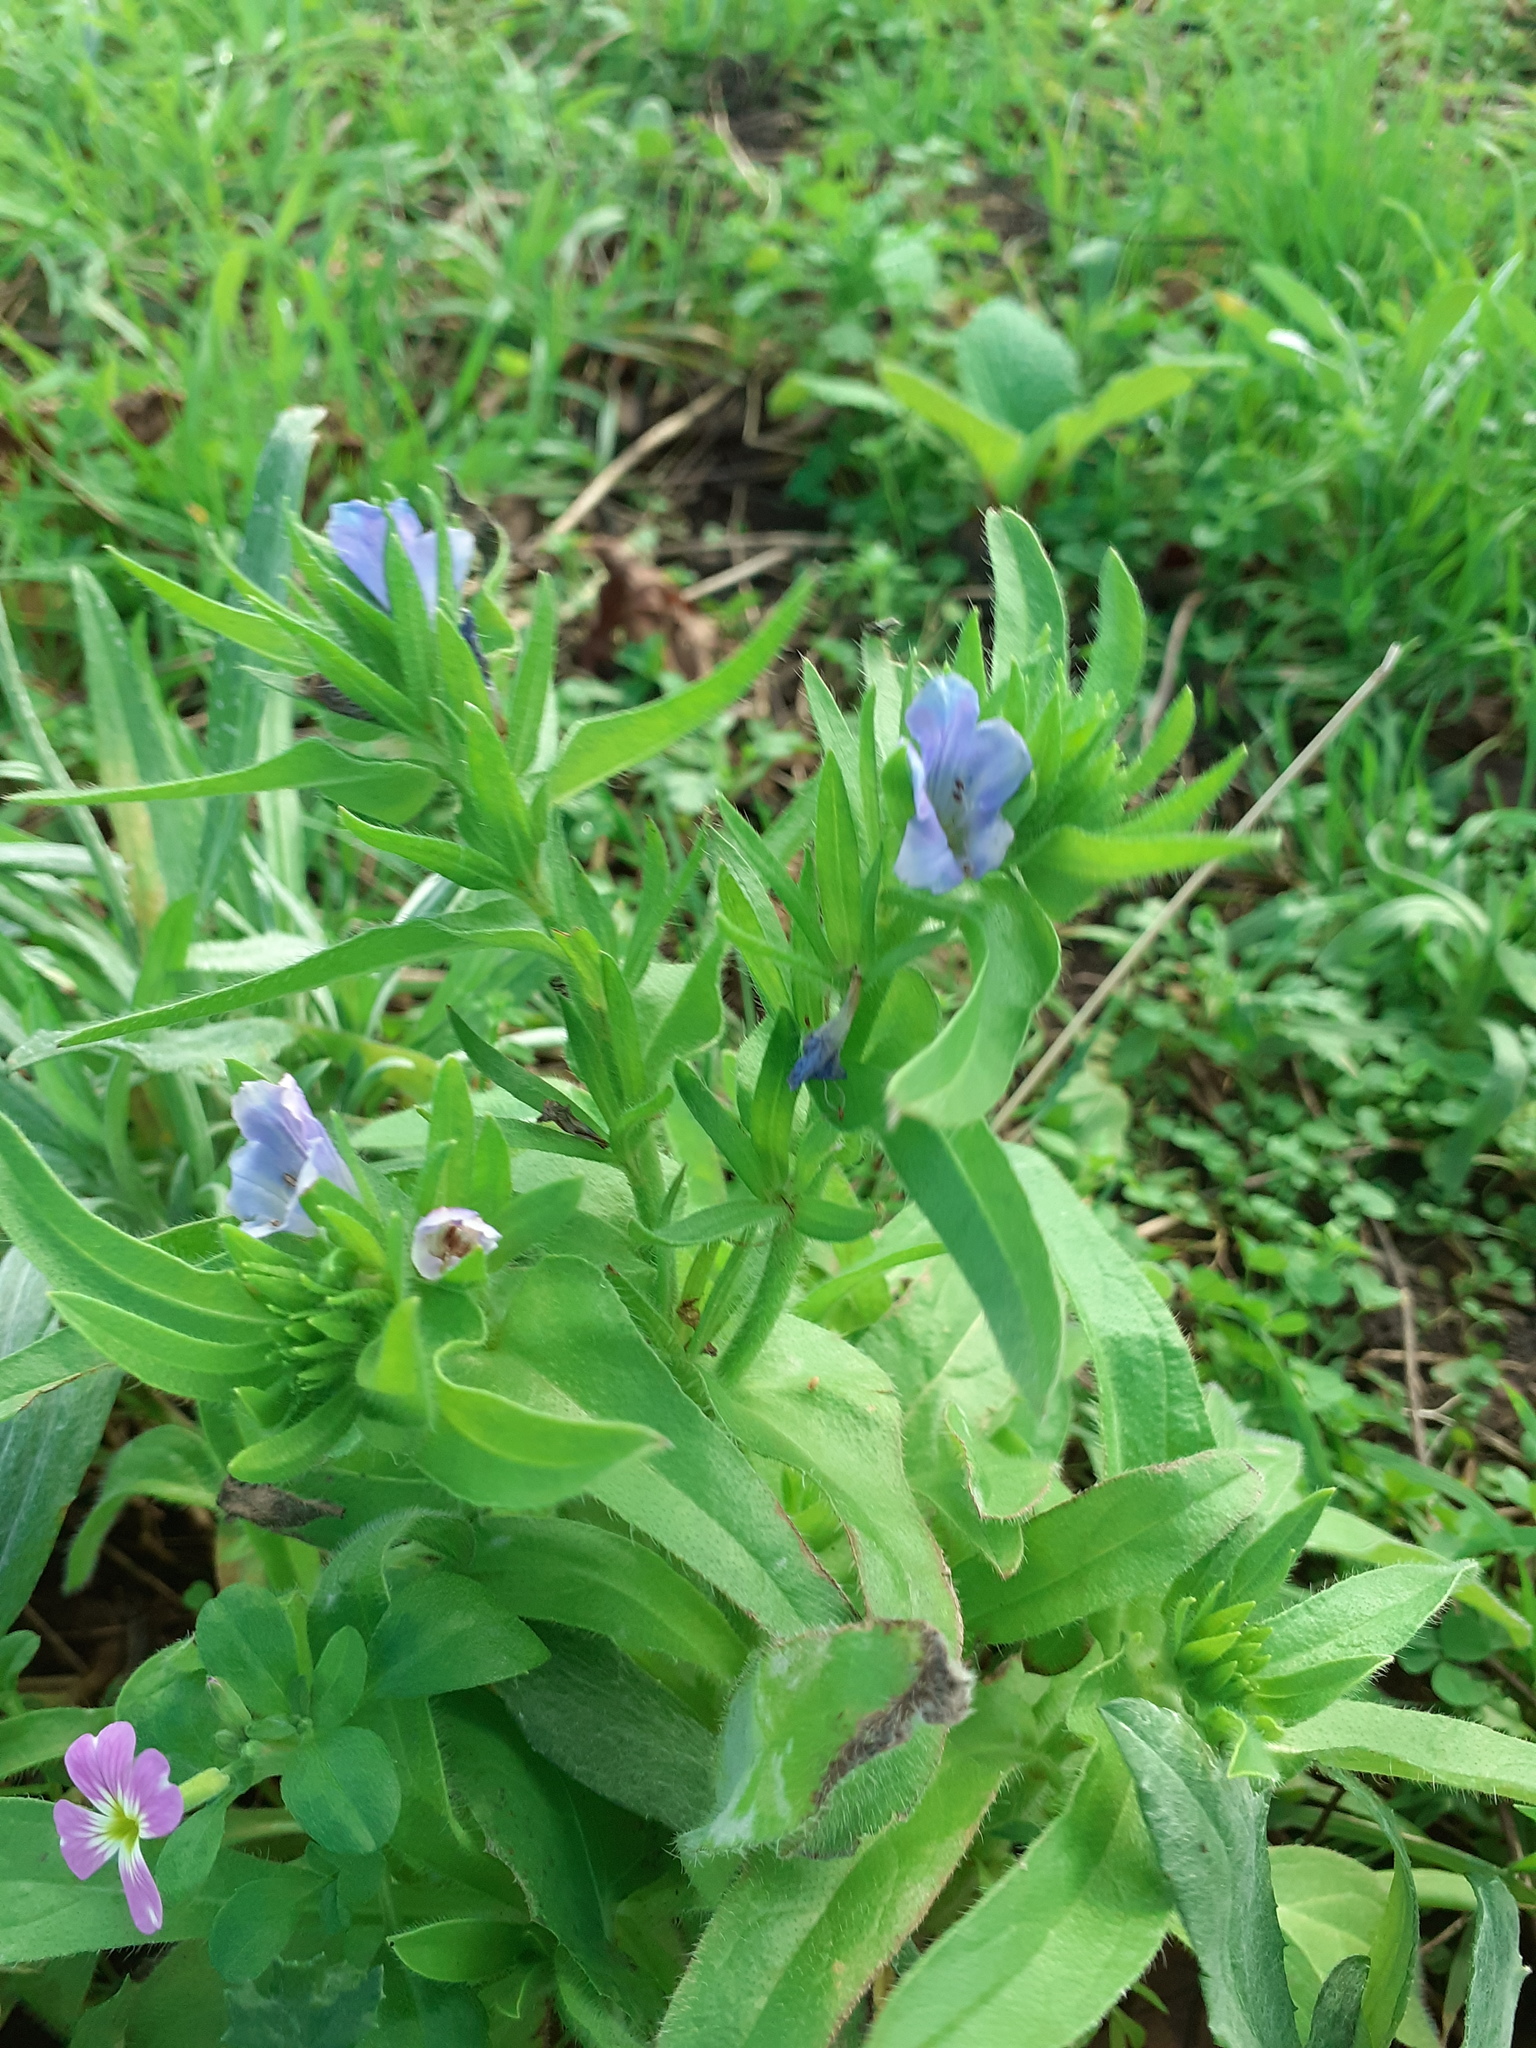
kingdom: Plantae
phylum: Tracheophyta
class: Magnoliopsida
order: Boraginales
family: Boraginaceae
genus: Echium
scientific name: Echium plantagineum
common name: Purple viper's-bugloss
